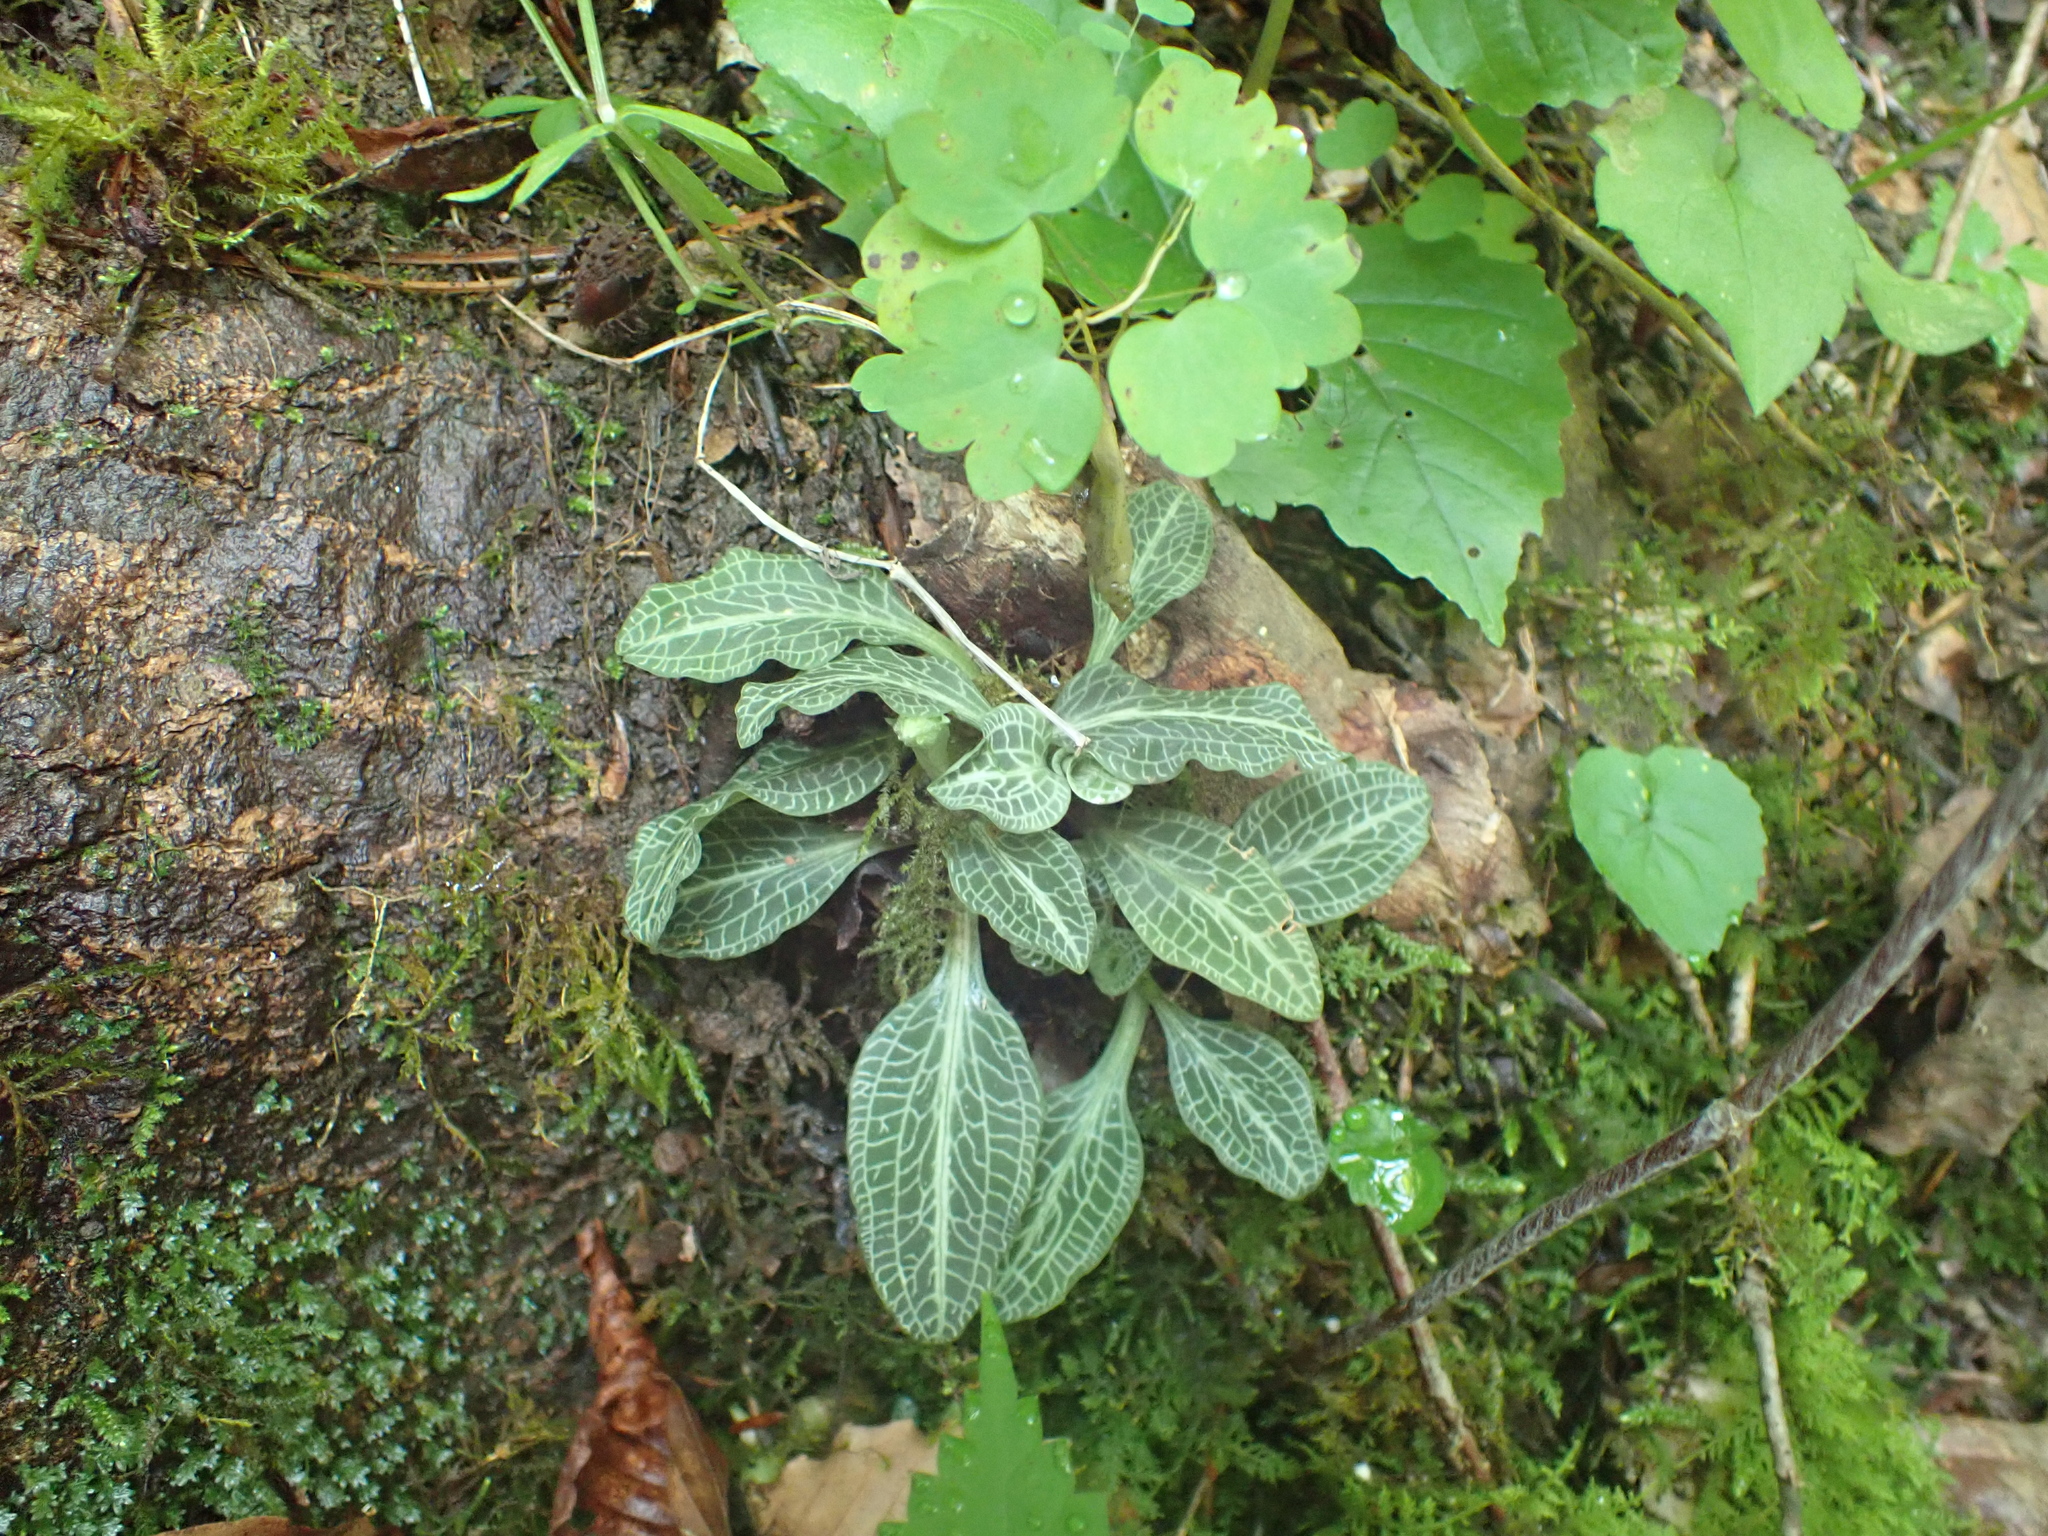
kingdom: Plantae
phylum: Tracheophyta
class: Liliopsida
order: Asparagales
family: Orchidaceae
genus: Goodyera
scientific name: Goodyera pubescens
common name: Downy rattlesnake-plantain
